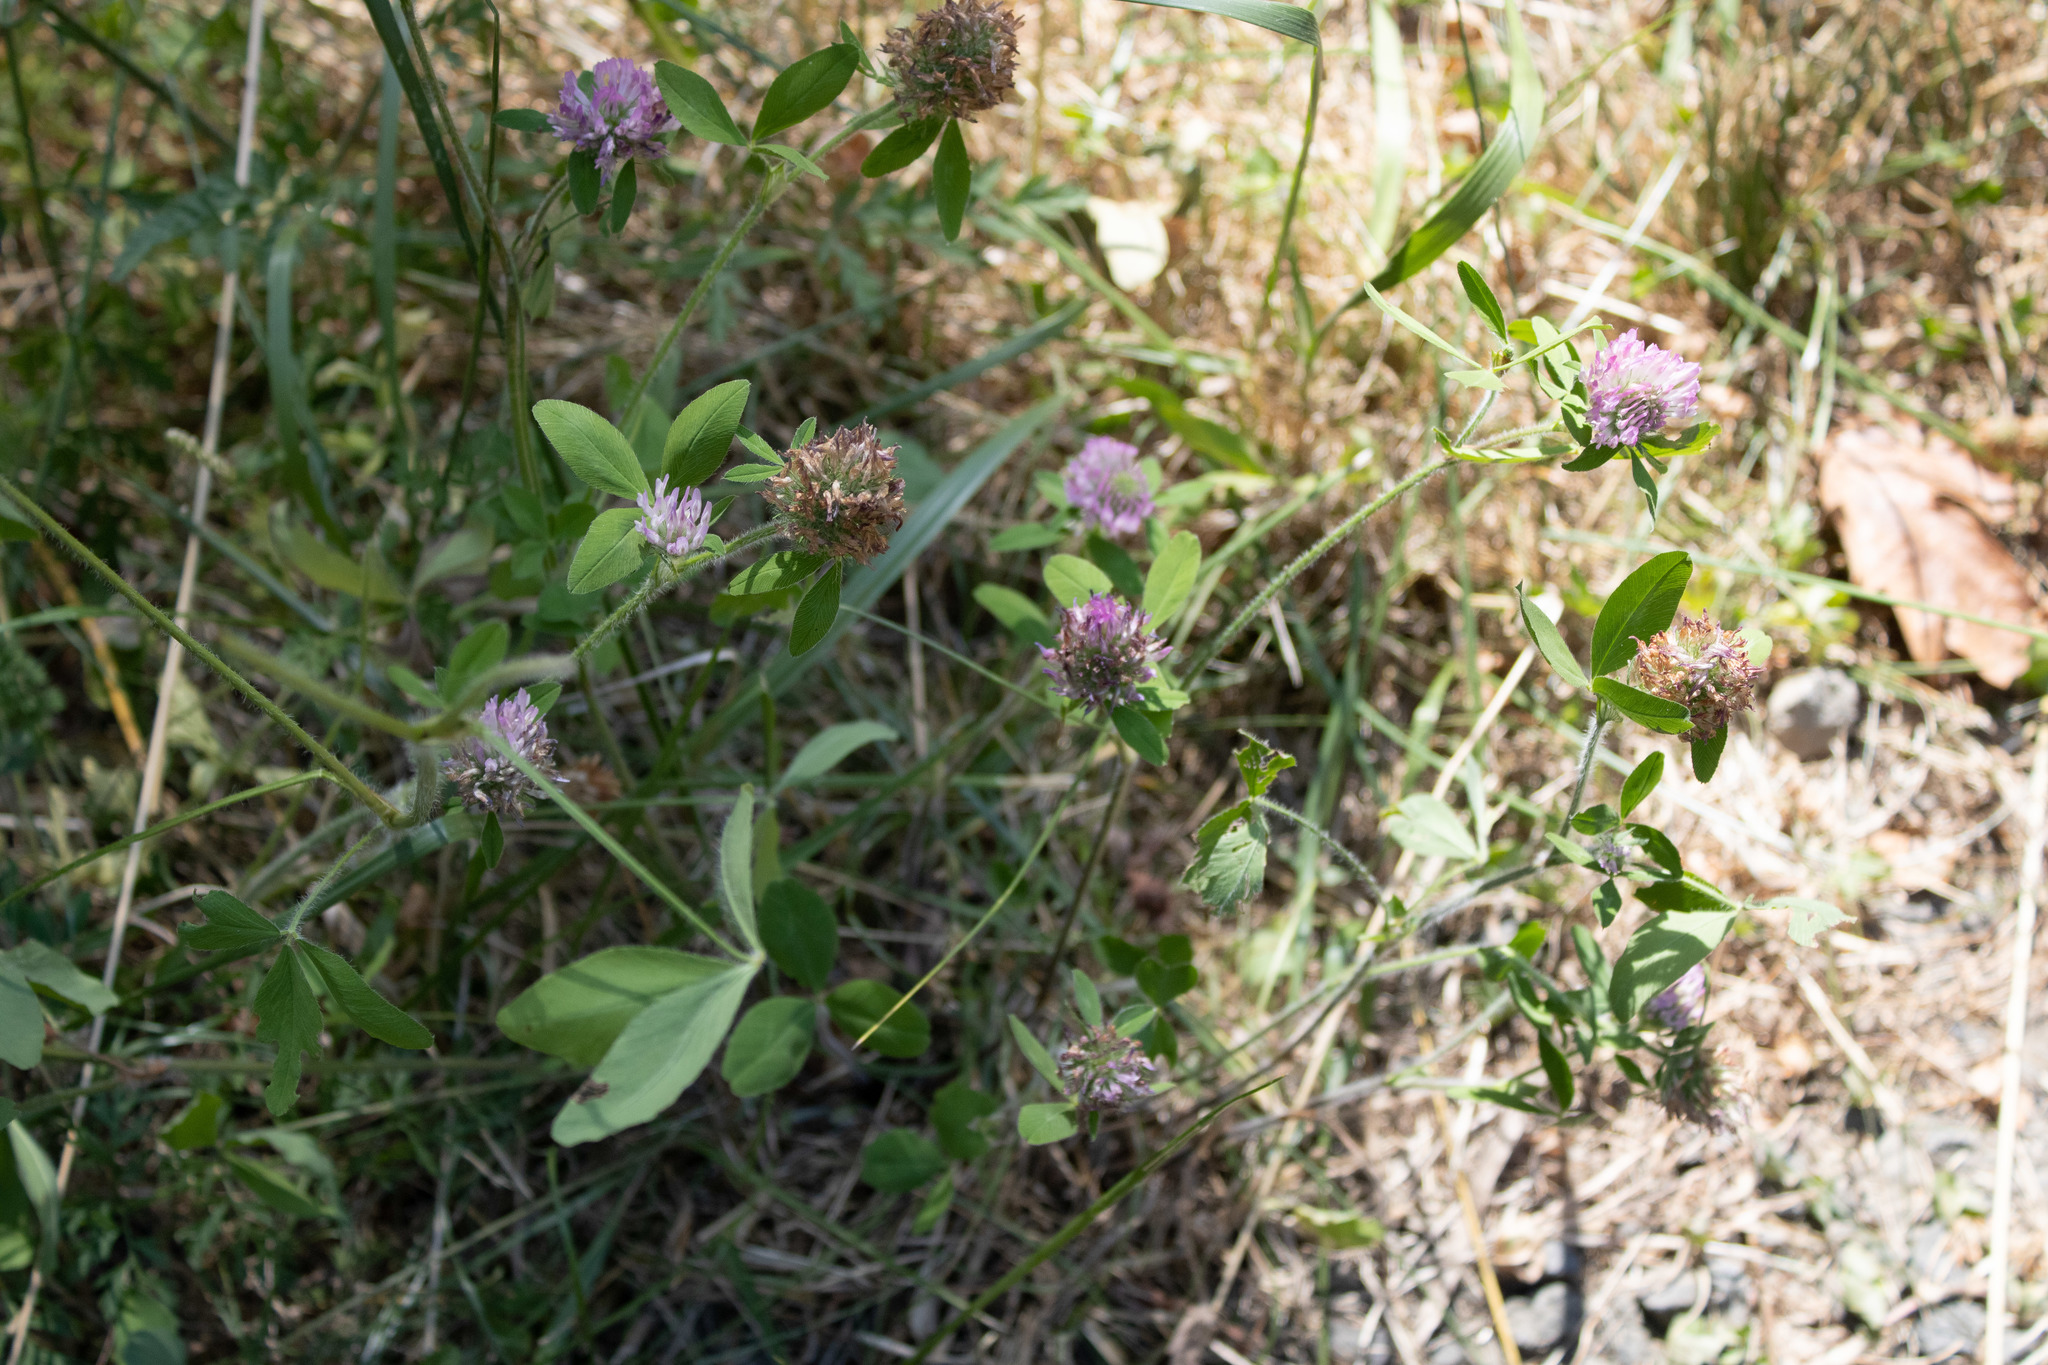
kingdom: Plantae
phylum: Tracheophyta
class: Magnoliopsida
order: Fabales
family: Fabaceae
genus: Trifolium
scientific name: Trifolium pratense
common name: Red clover
